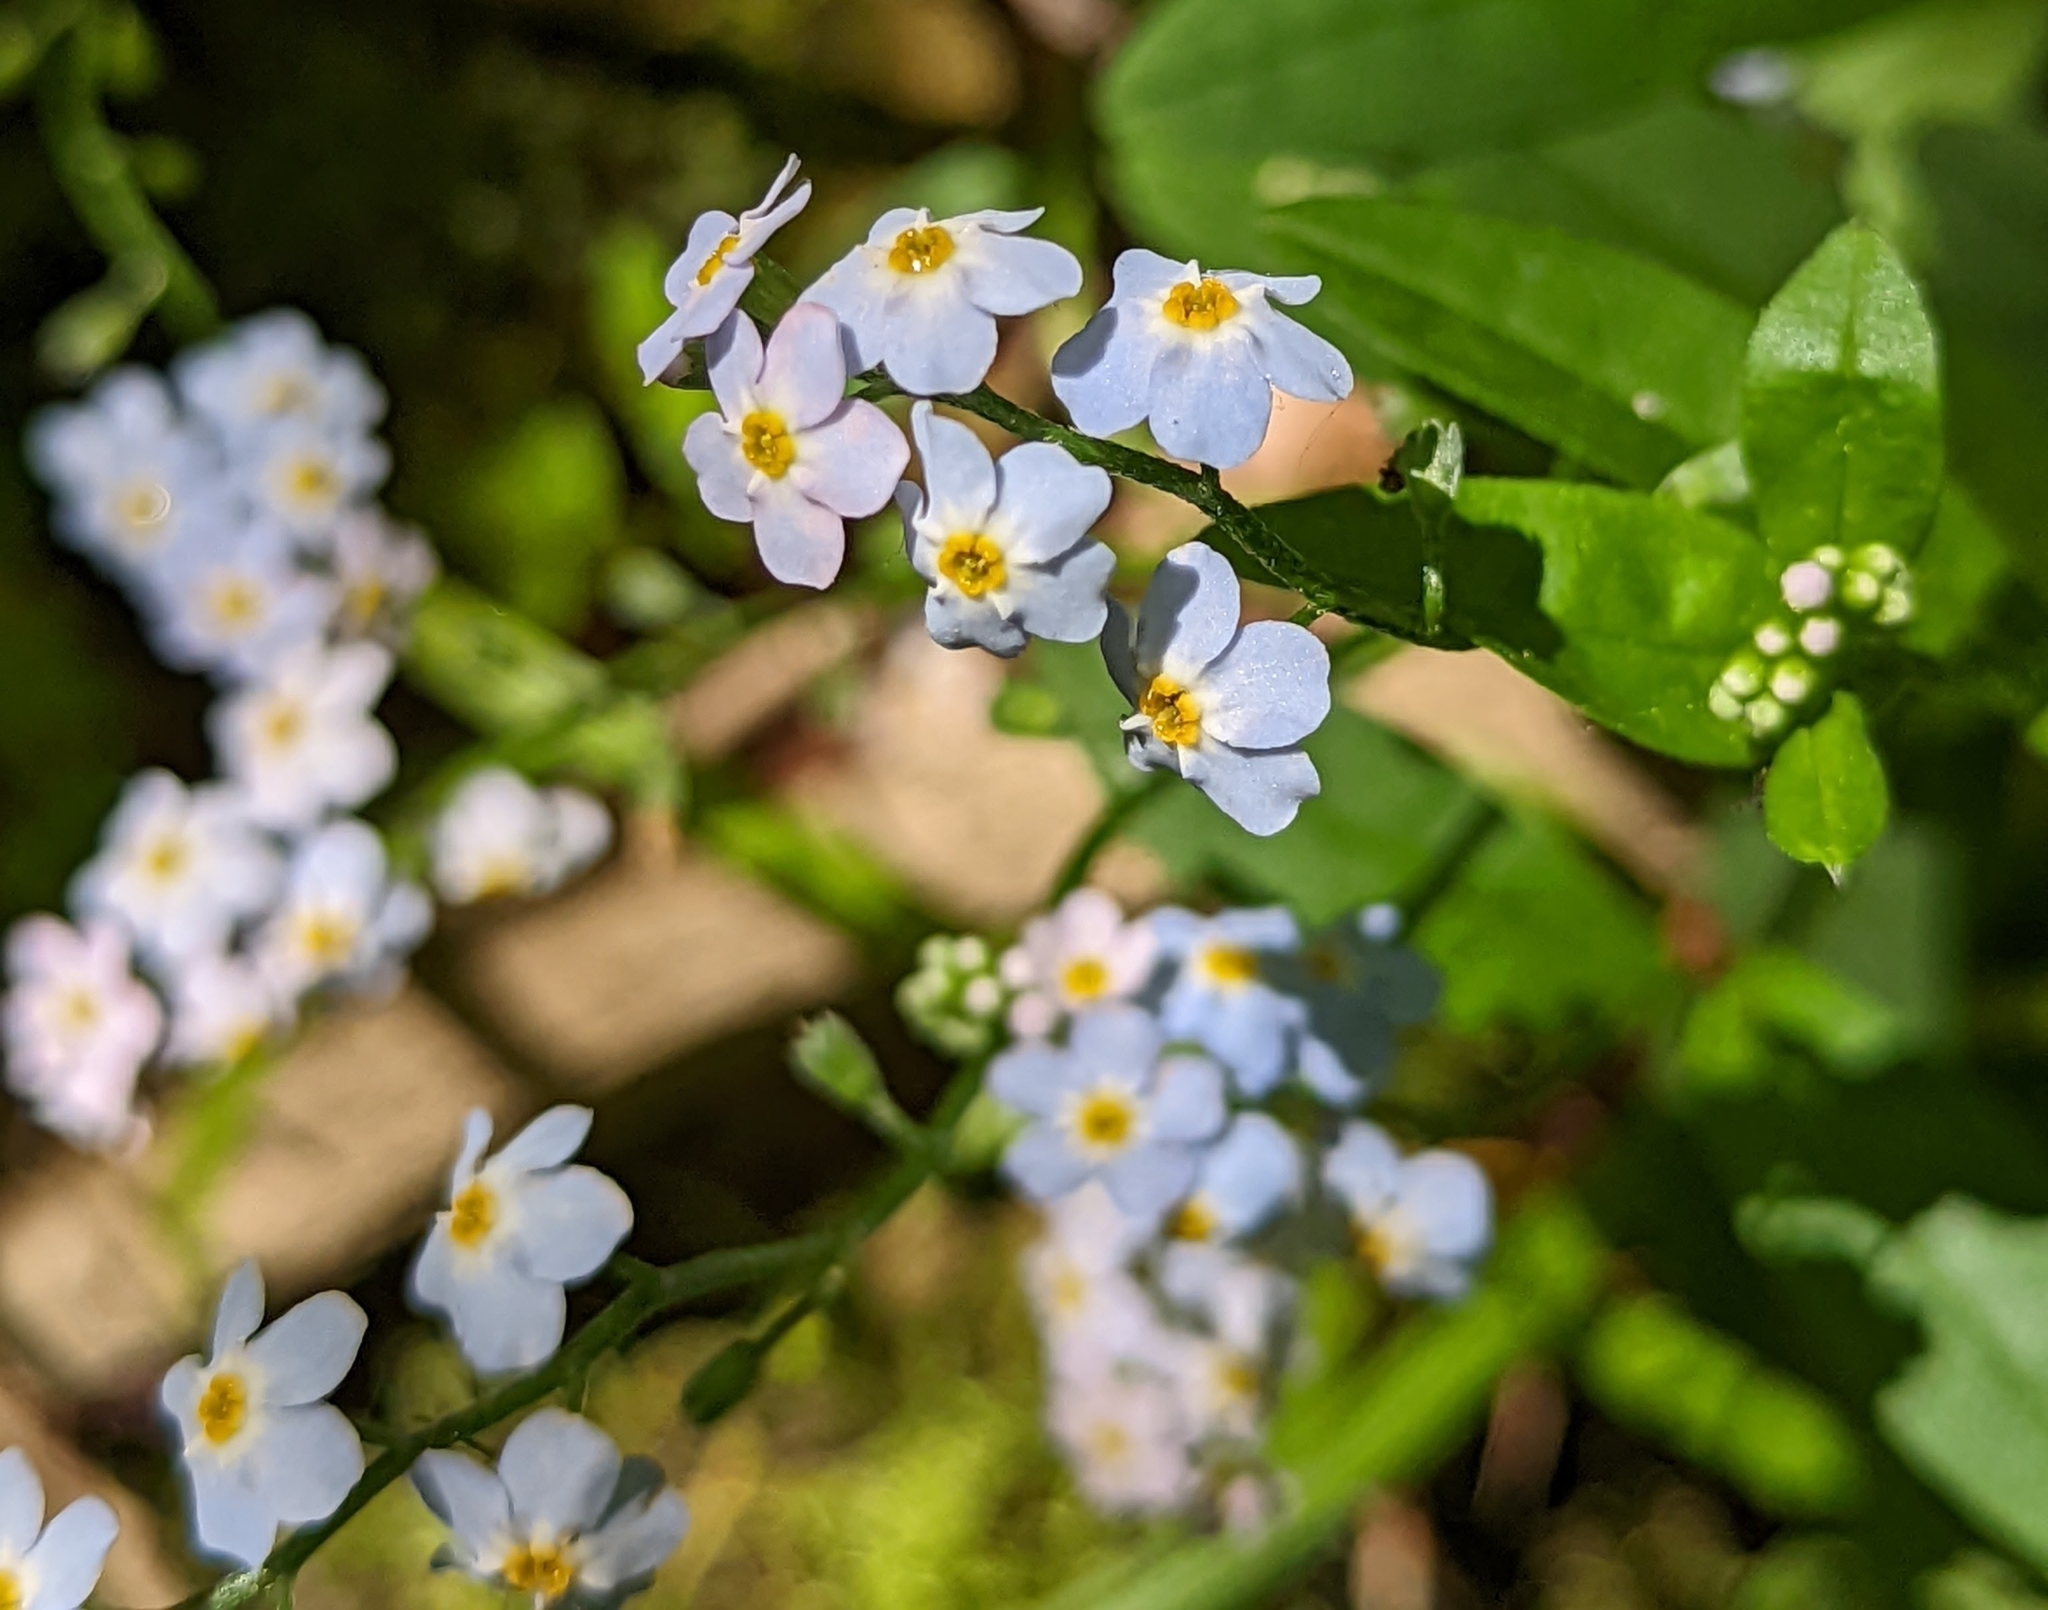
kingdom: Plantae
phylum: Tracheophyta
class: Magnoliopsida
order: Boraginales
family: Boraginaceae
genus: Myosotis
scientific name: Myosotis scorpioides
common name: Water forget-me-not
